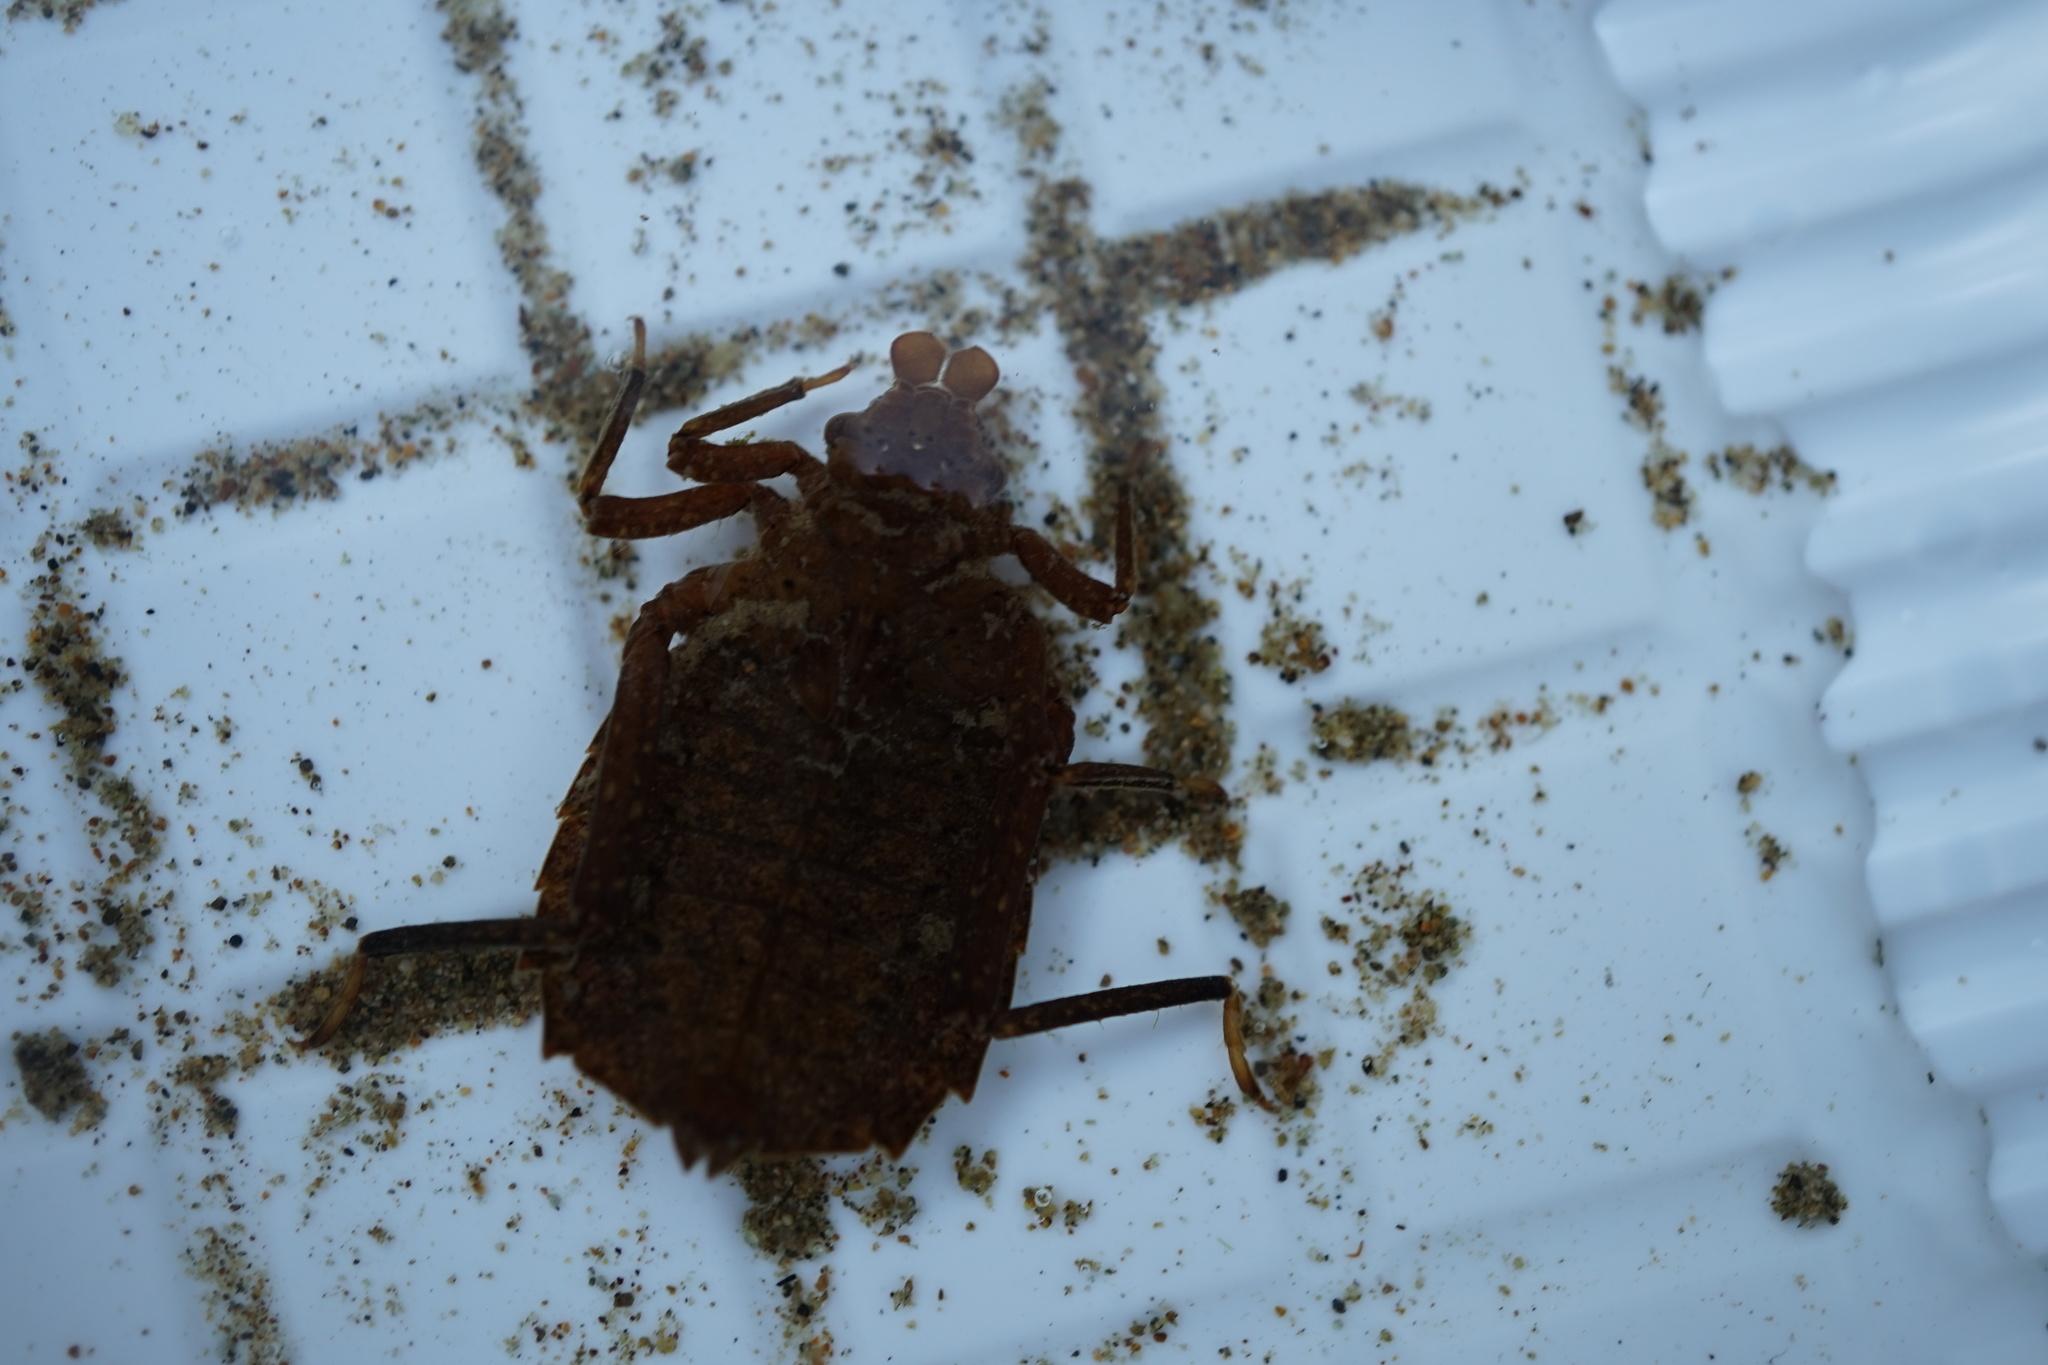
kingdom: Animalia
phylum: Arthropoda
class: Insecta
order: Odonata
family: Gomphidae
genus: Sieboldius
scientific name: Sieboldius albardae
